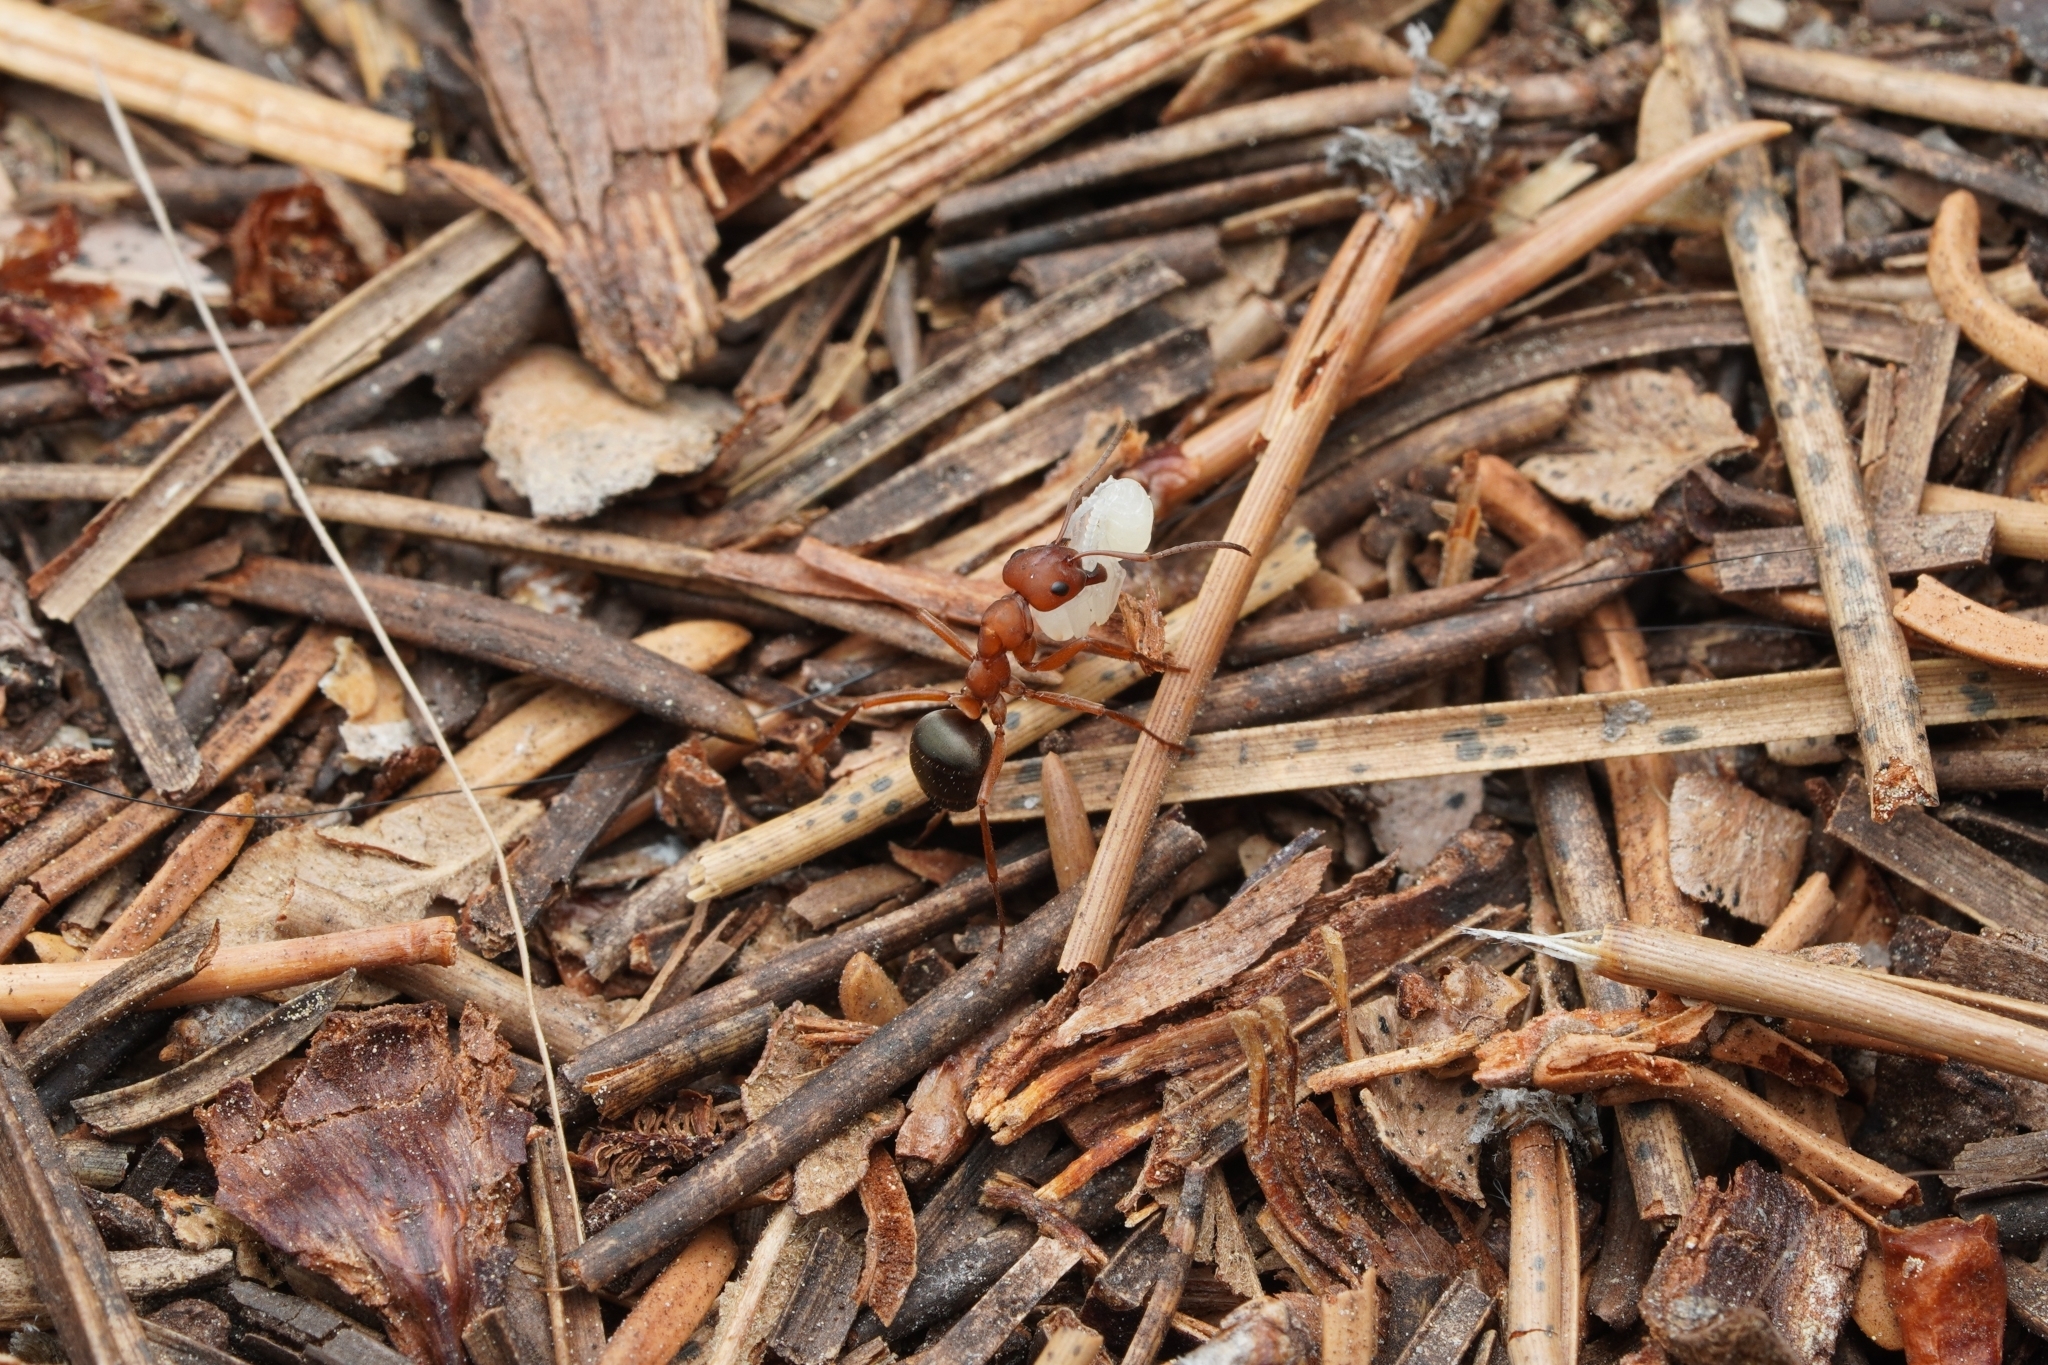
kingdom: Animalia
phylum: Arthropoda
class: Insecta
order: Hymenoptera
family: Formicidae
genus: Formica
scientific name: Formica aserva
